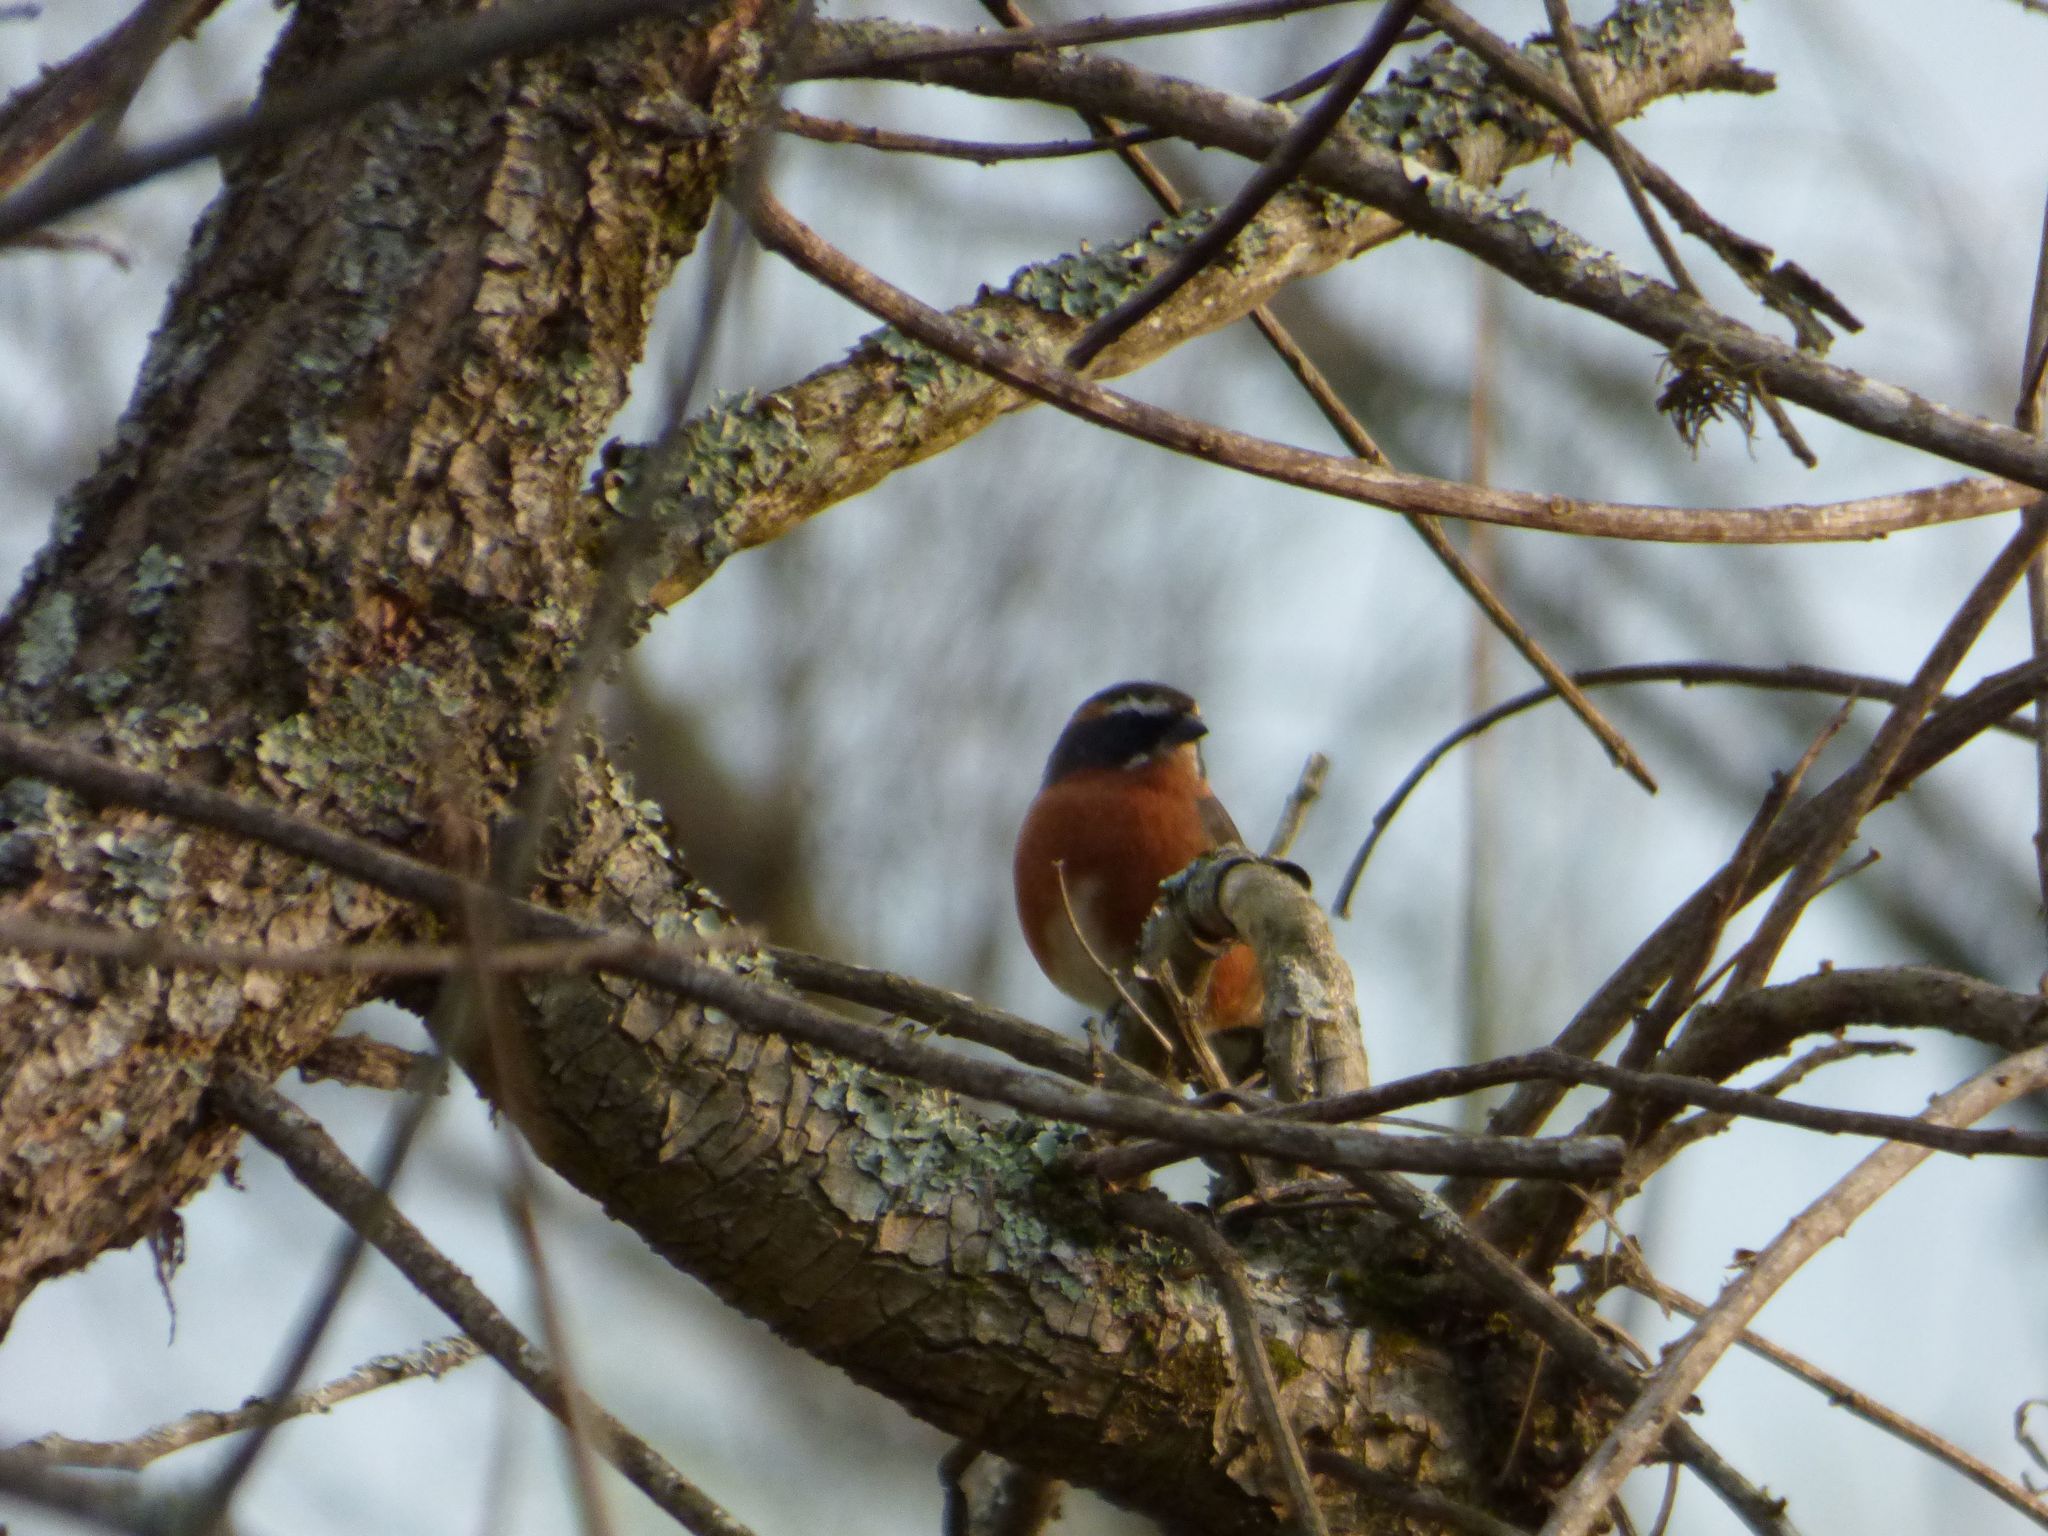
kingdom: Animalia
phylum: Chordata
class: Aves
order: Passeriformes
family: Thraupidae
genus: Poospiza
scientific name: Poospiza nigrorufa
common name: Black-and-rufous warbling finch
